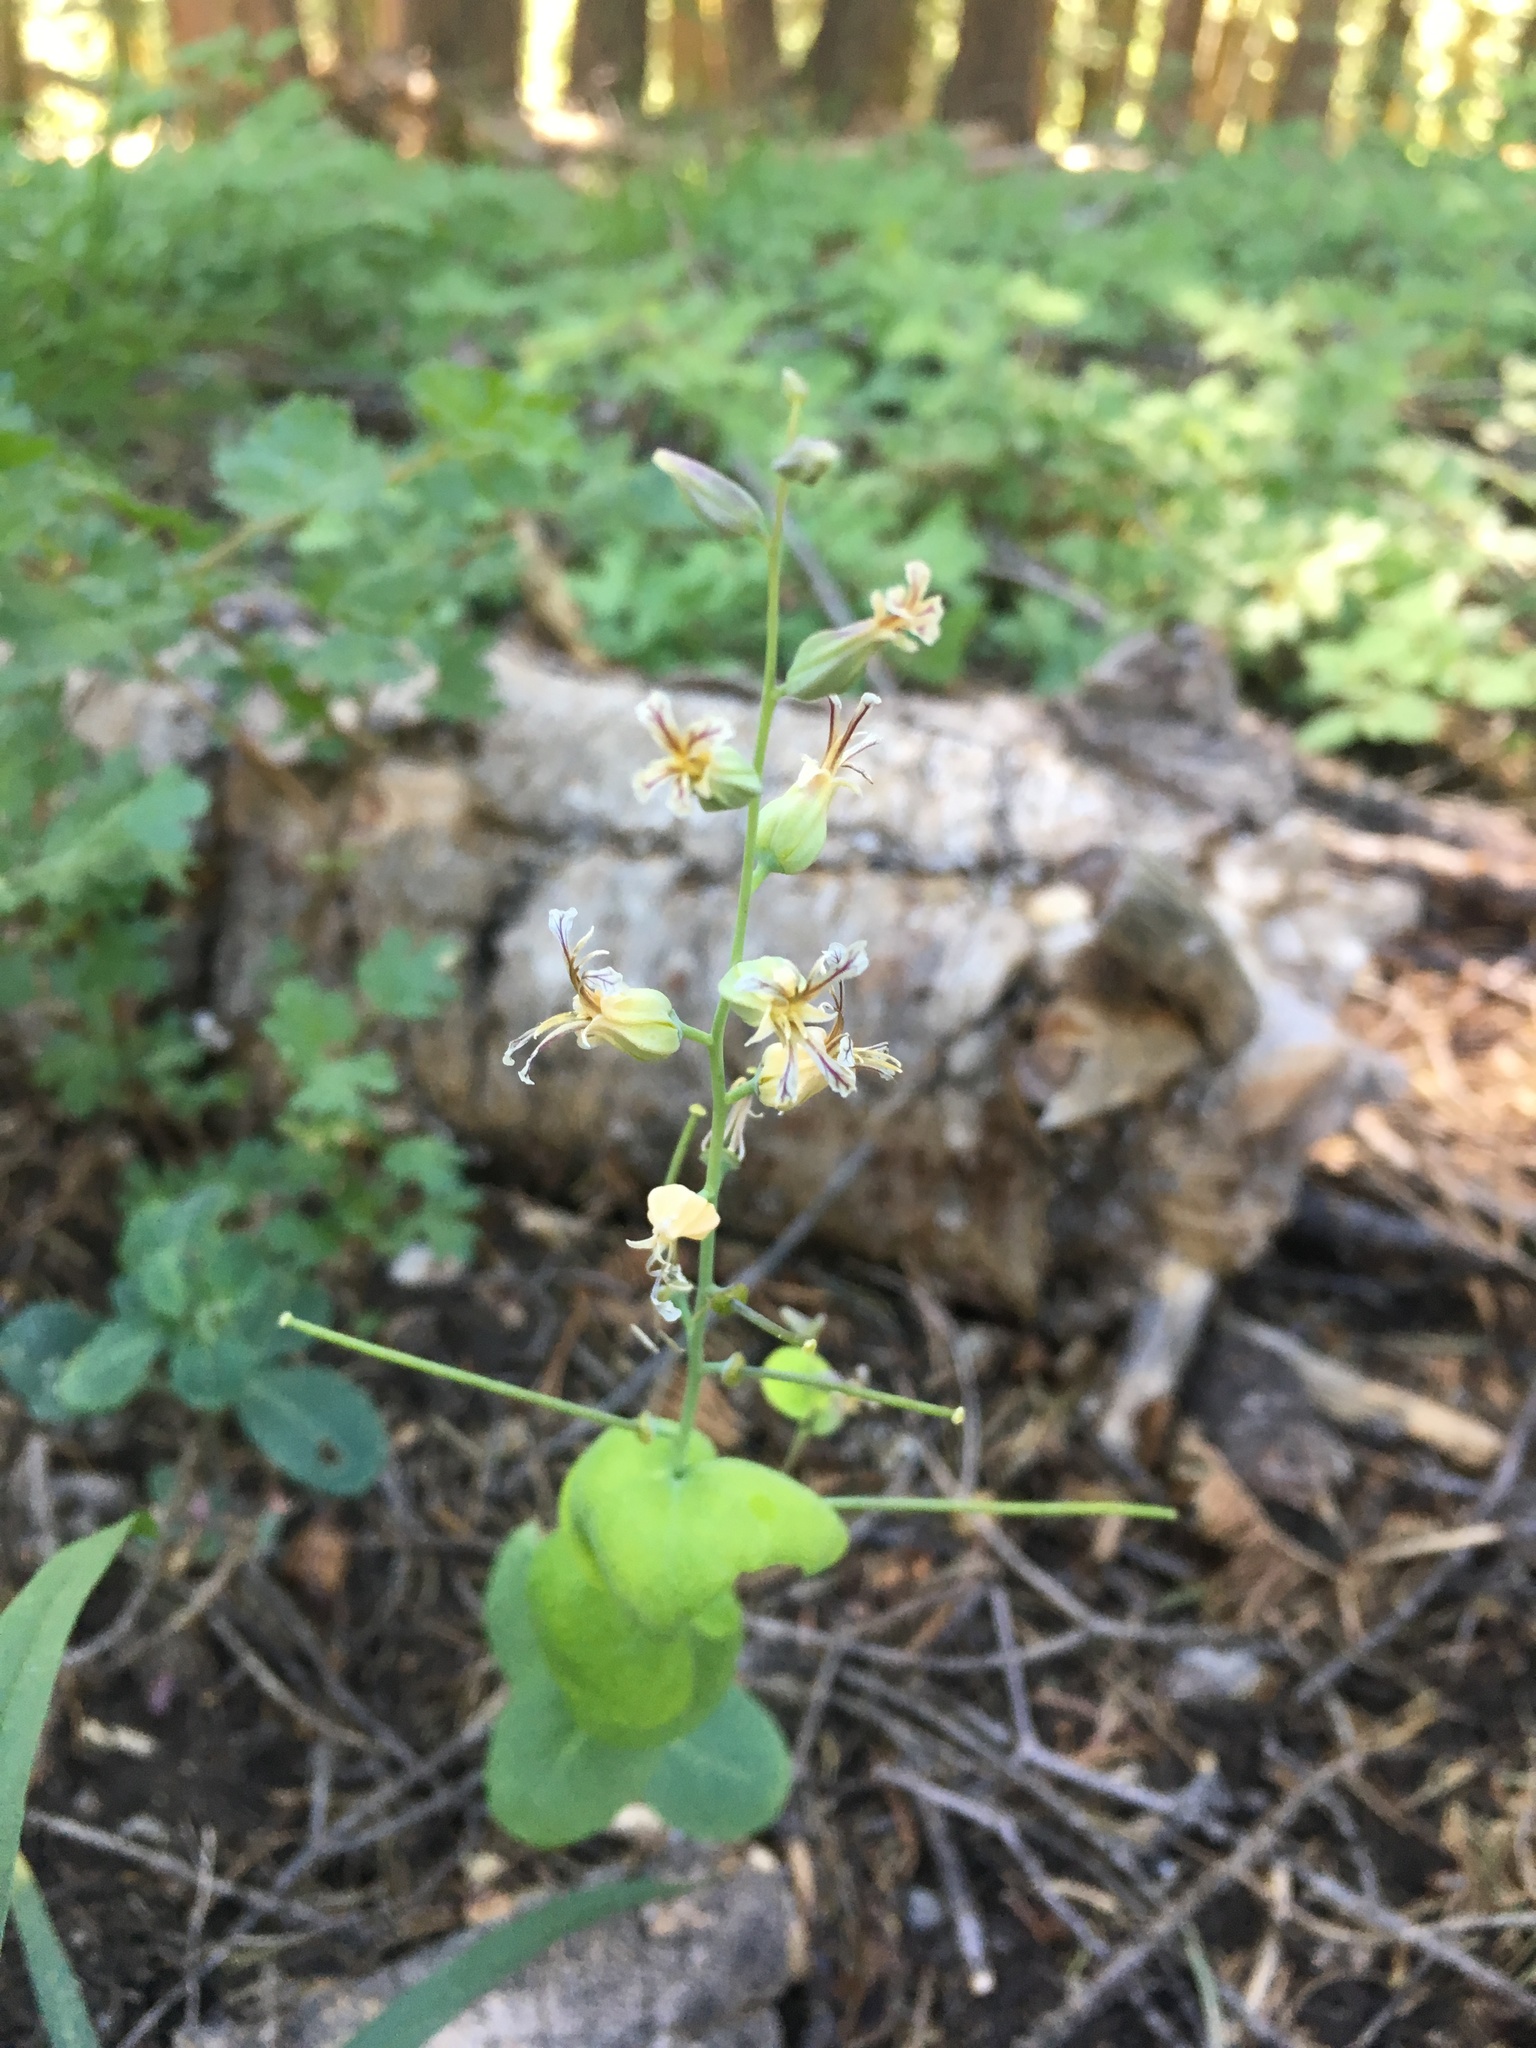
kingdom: Plantae
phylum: Tracheophyta
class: Magnoliopsida
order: Brassicales
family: Brassicaceae
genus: Streptanthus
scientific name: Streptanthus tortuosus
